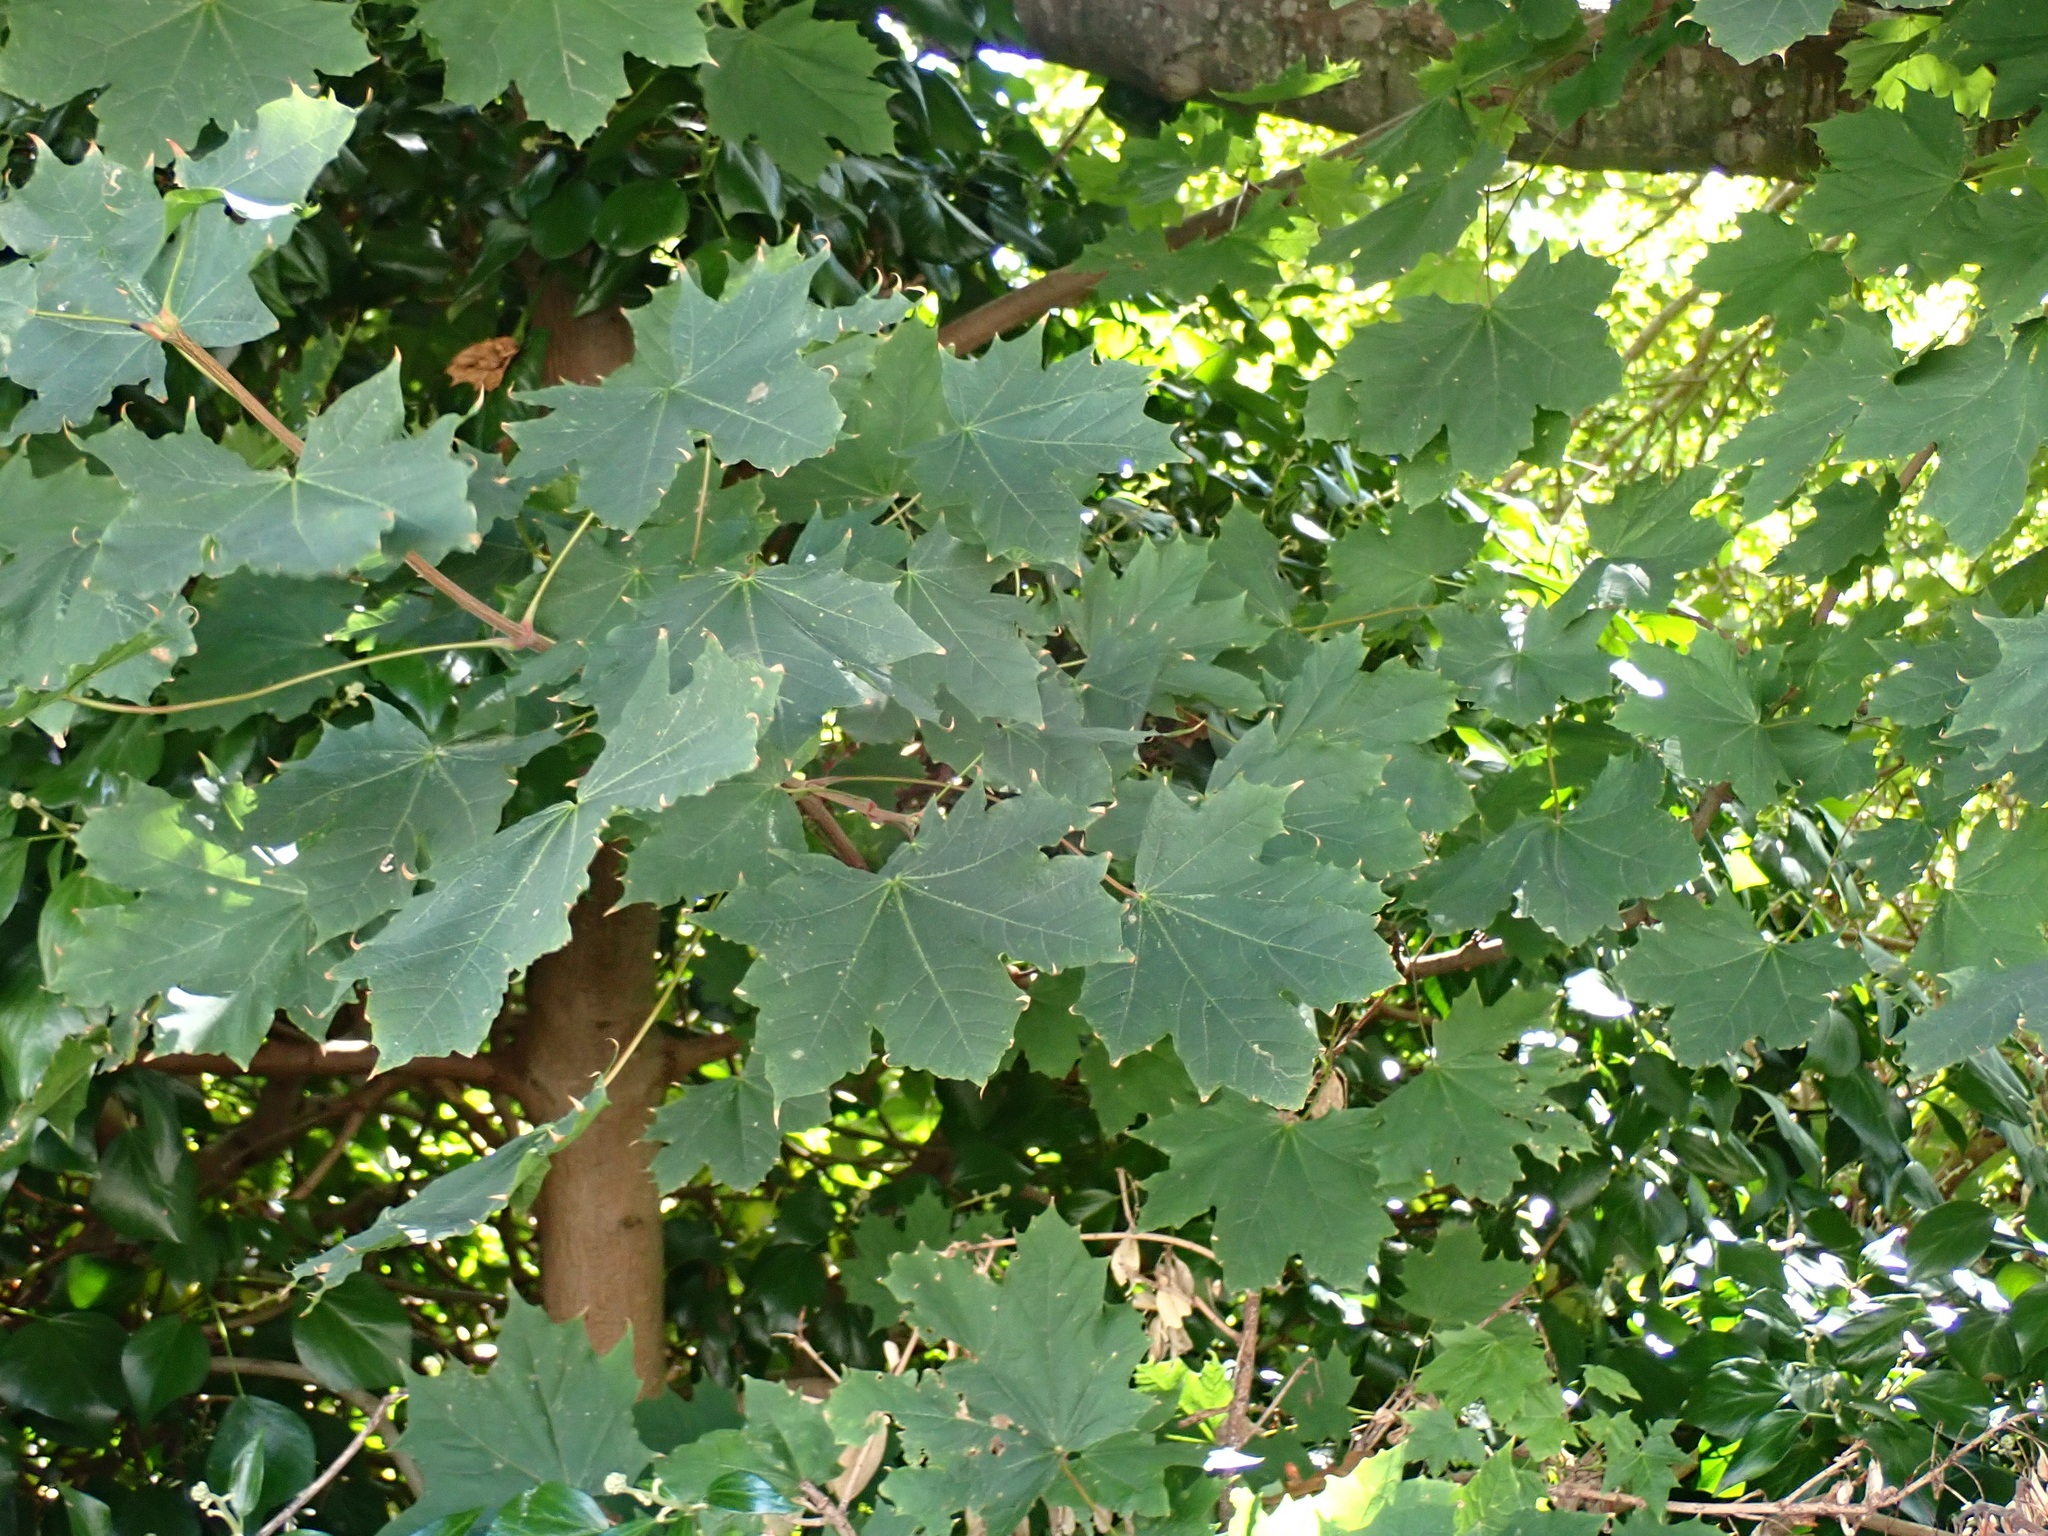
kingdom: Plantae
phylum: Tracheophyta
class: Magnoliopsida
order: Sapindales
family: Sapindaceae
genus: Acer
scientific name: Acer platanoides
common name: Norway maple
